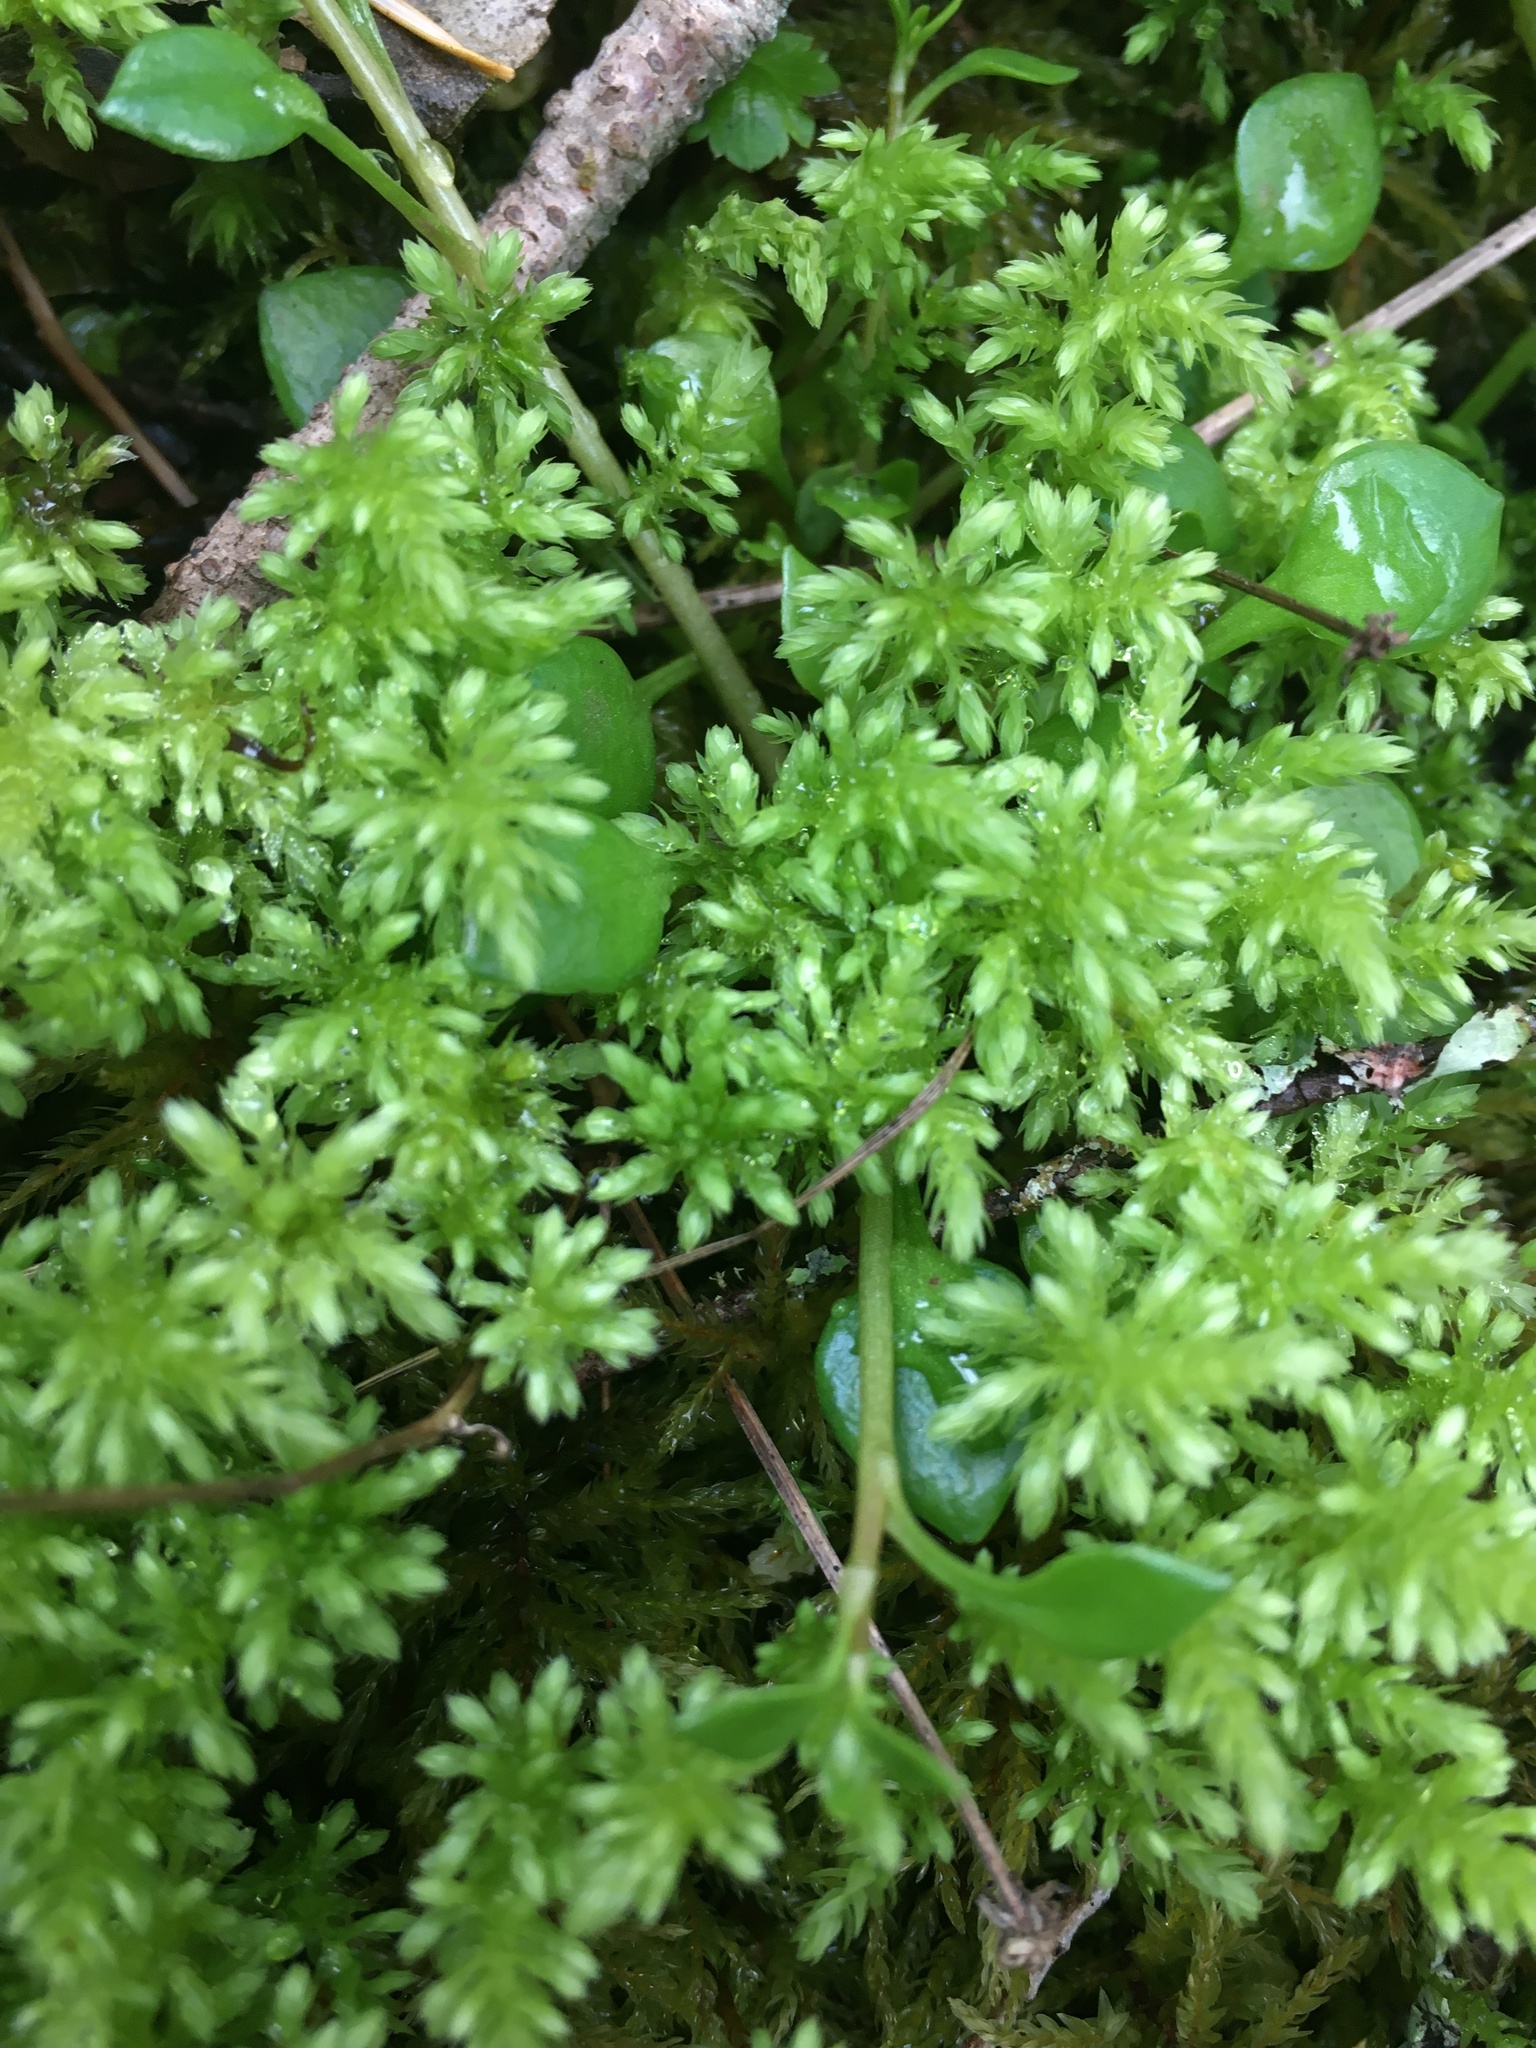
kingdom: Plantae
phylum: Bryophyta
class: Bryopsida
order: Bryales
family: Mniaceae
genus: Leucolepis
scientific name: Leucolepis acanthoneura
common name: Leucolepis umbrella moss
